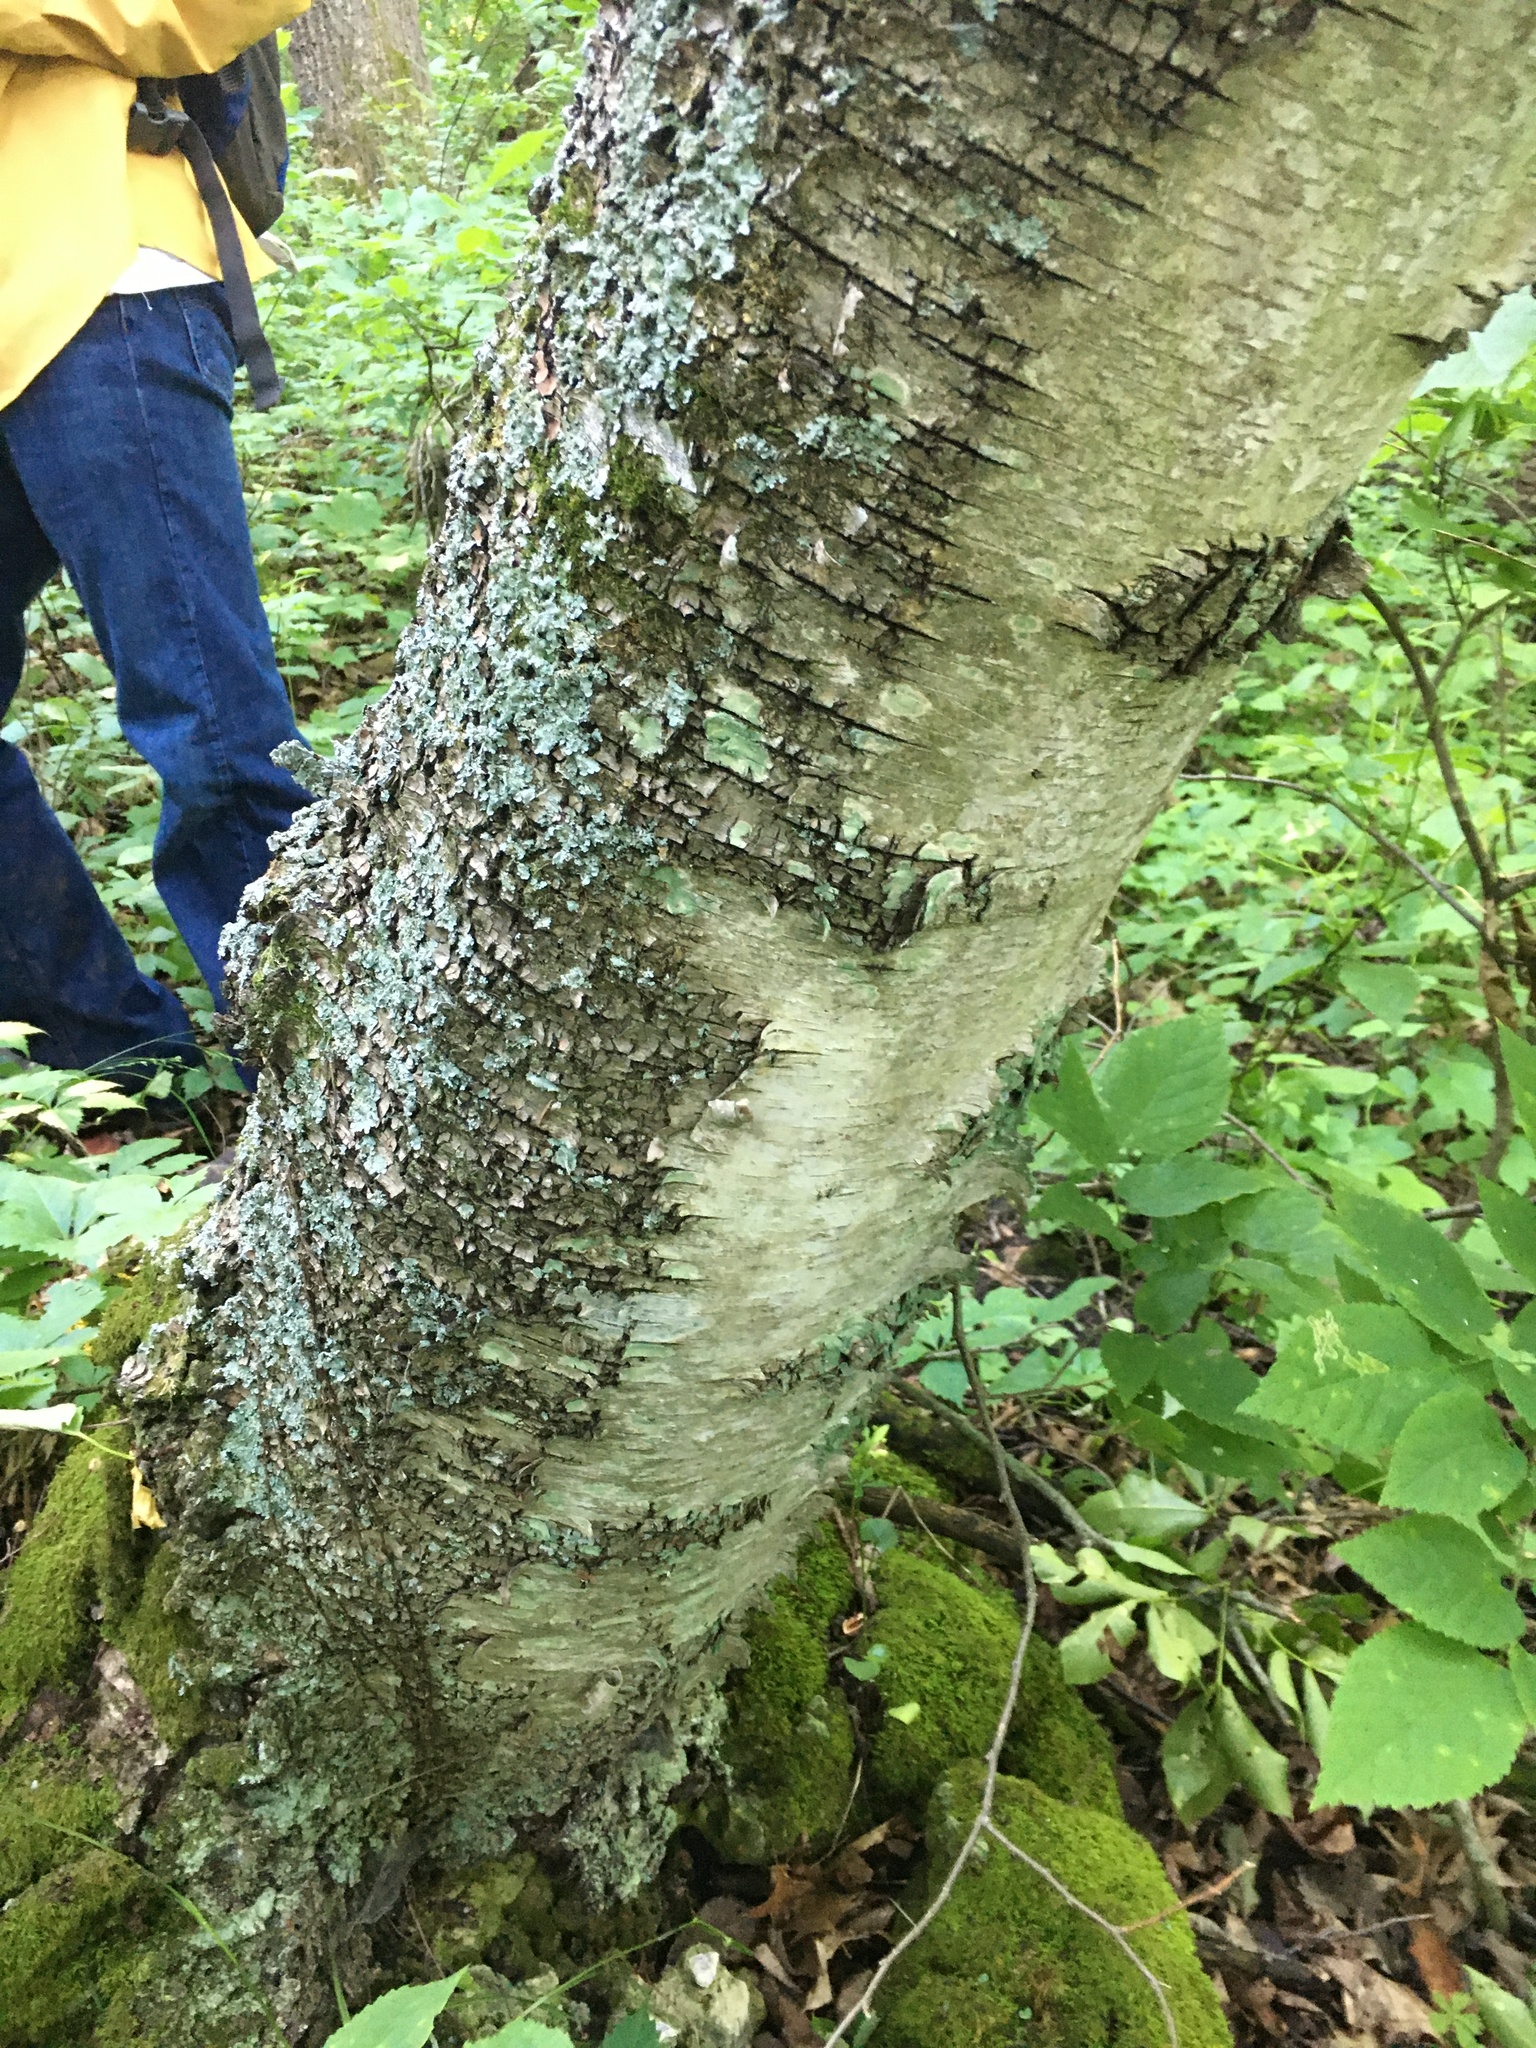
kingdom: Plantae
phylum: Tracheophyta
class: Magnoliopsida
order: Fagales
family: Betulaceae
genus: Betula
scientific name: Betula papyrifera
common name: Paper birch
